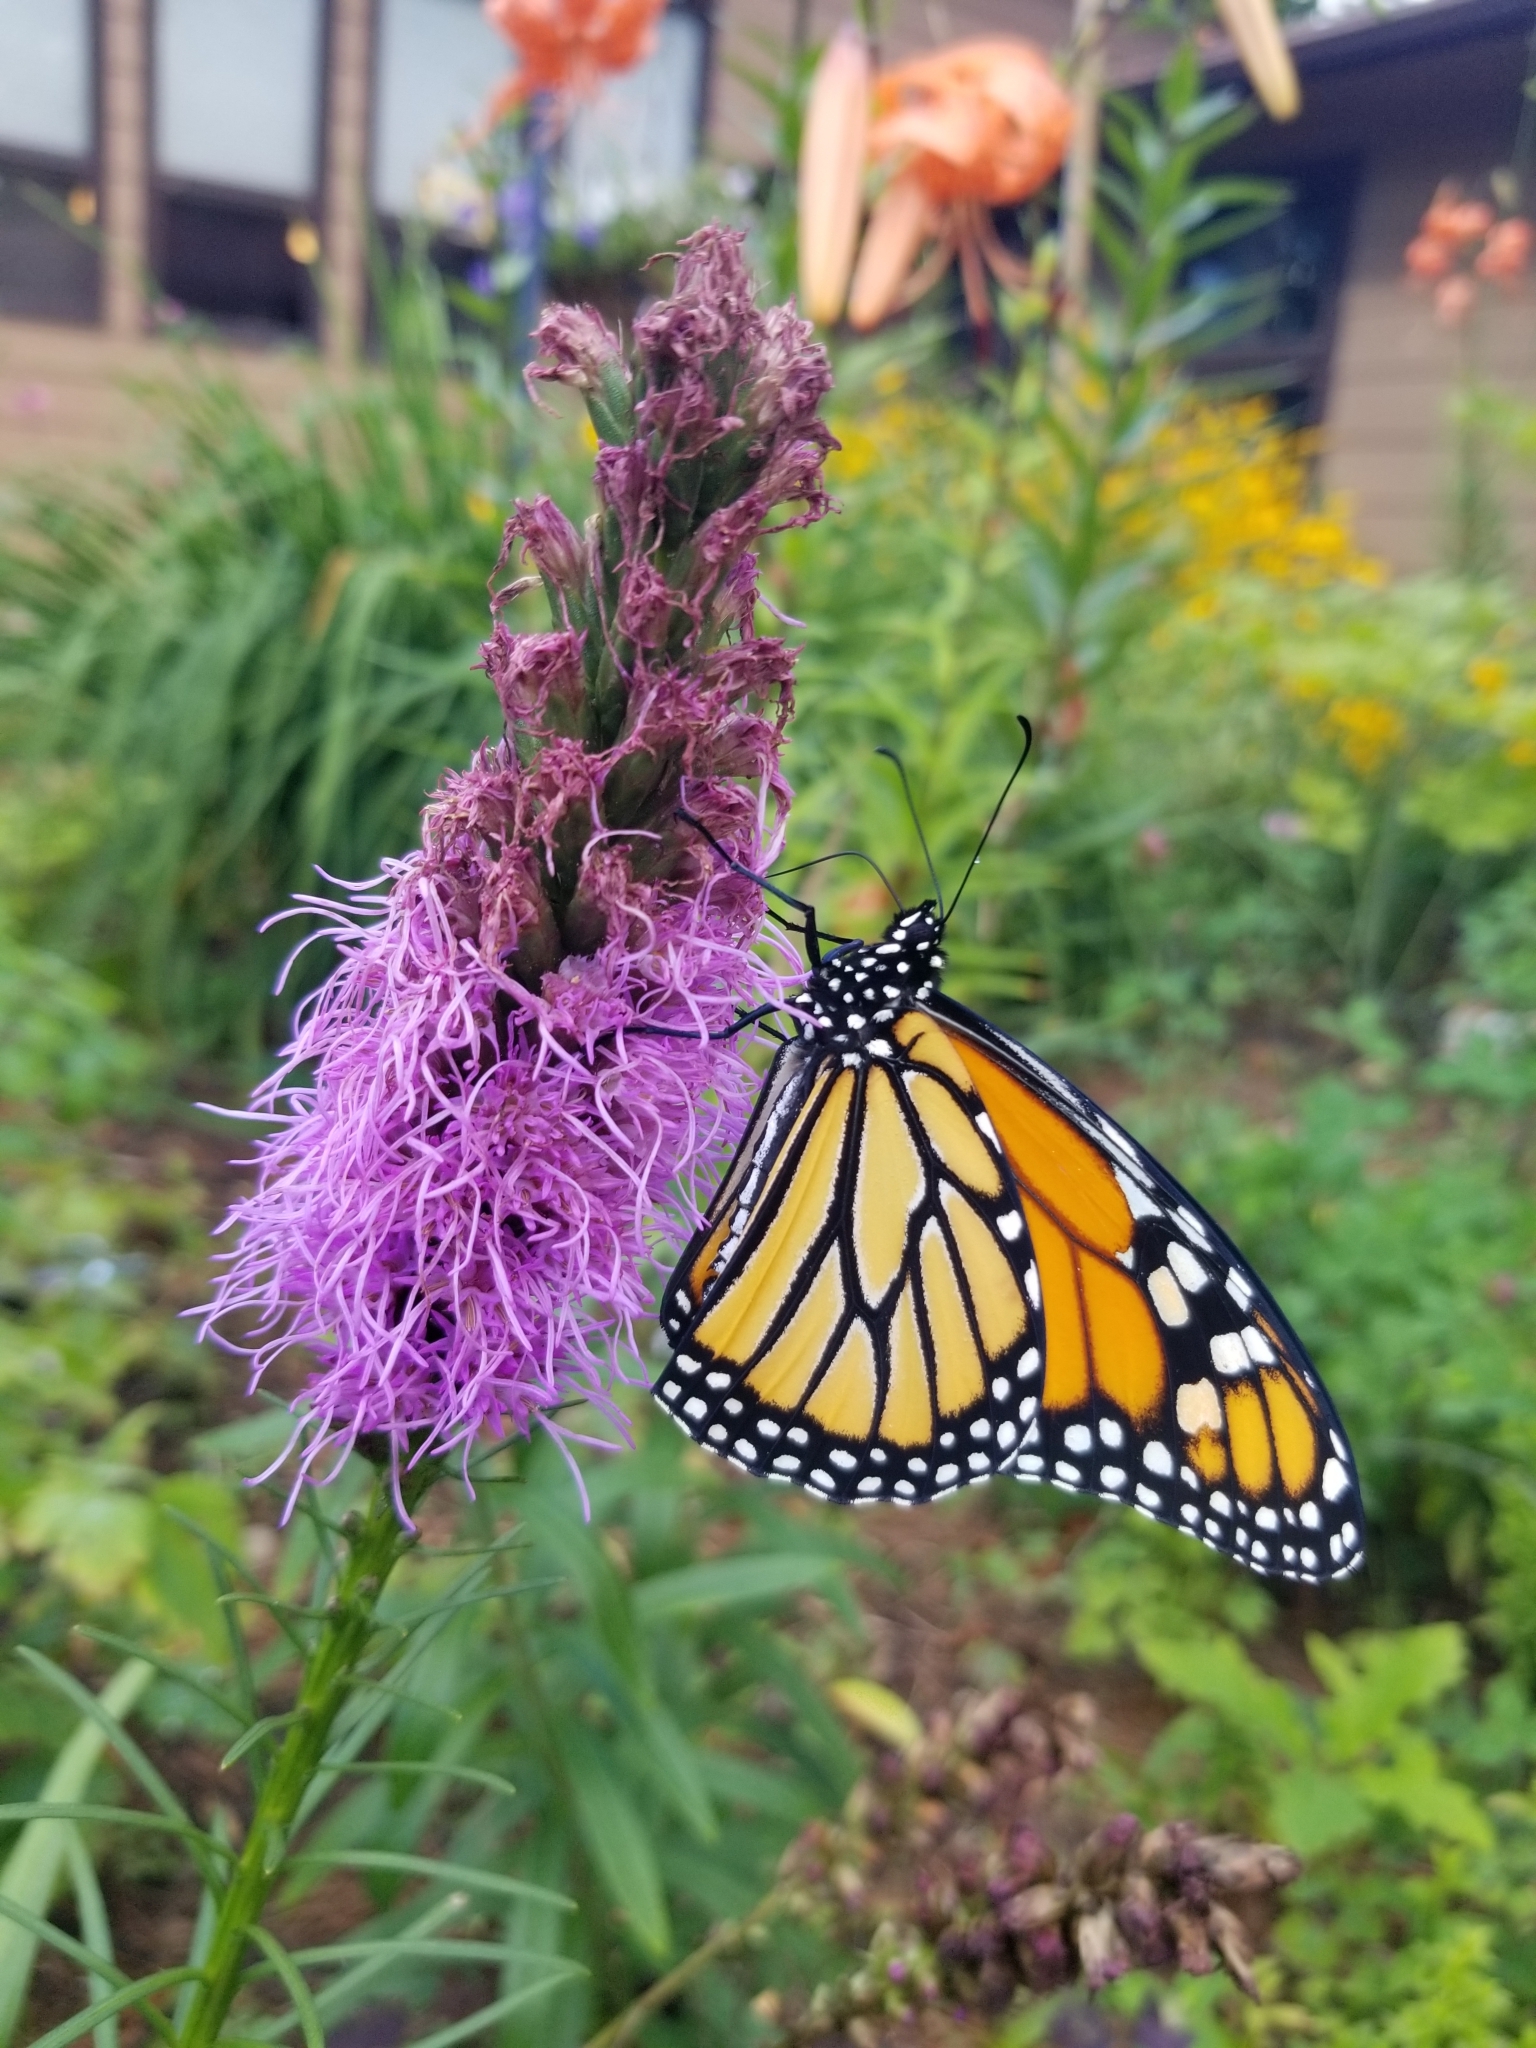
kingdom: Animalia
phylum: Arthropoda
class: Insecta
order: Lepidoptera
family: Nymphalidae
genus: Danaus
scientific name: Danaus plexippus
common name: Monarch
